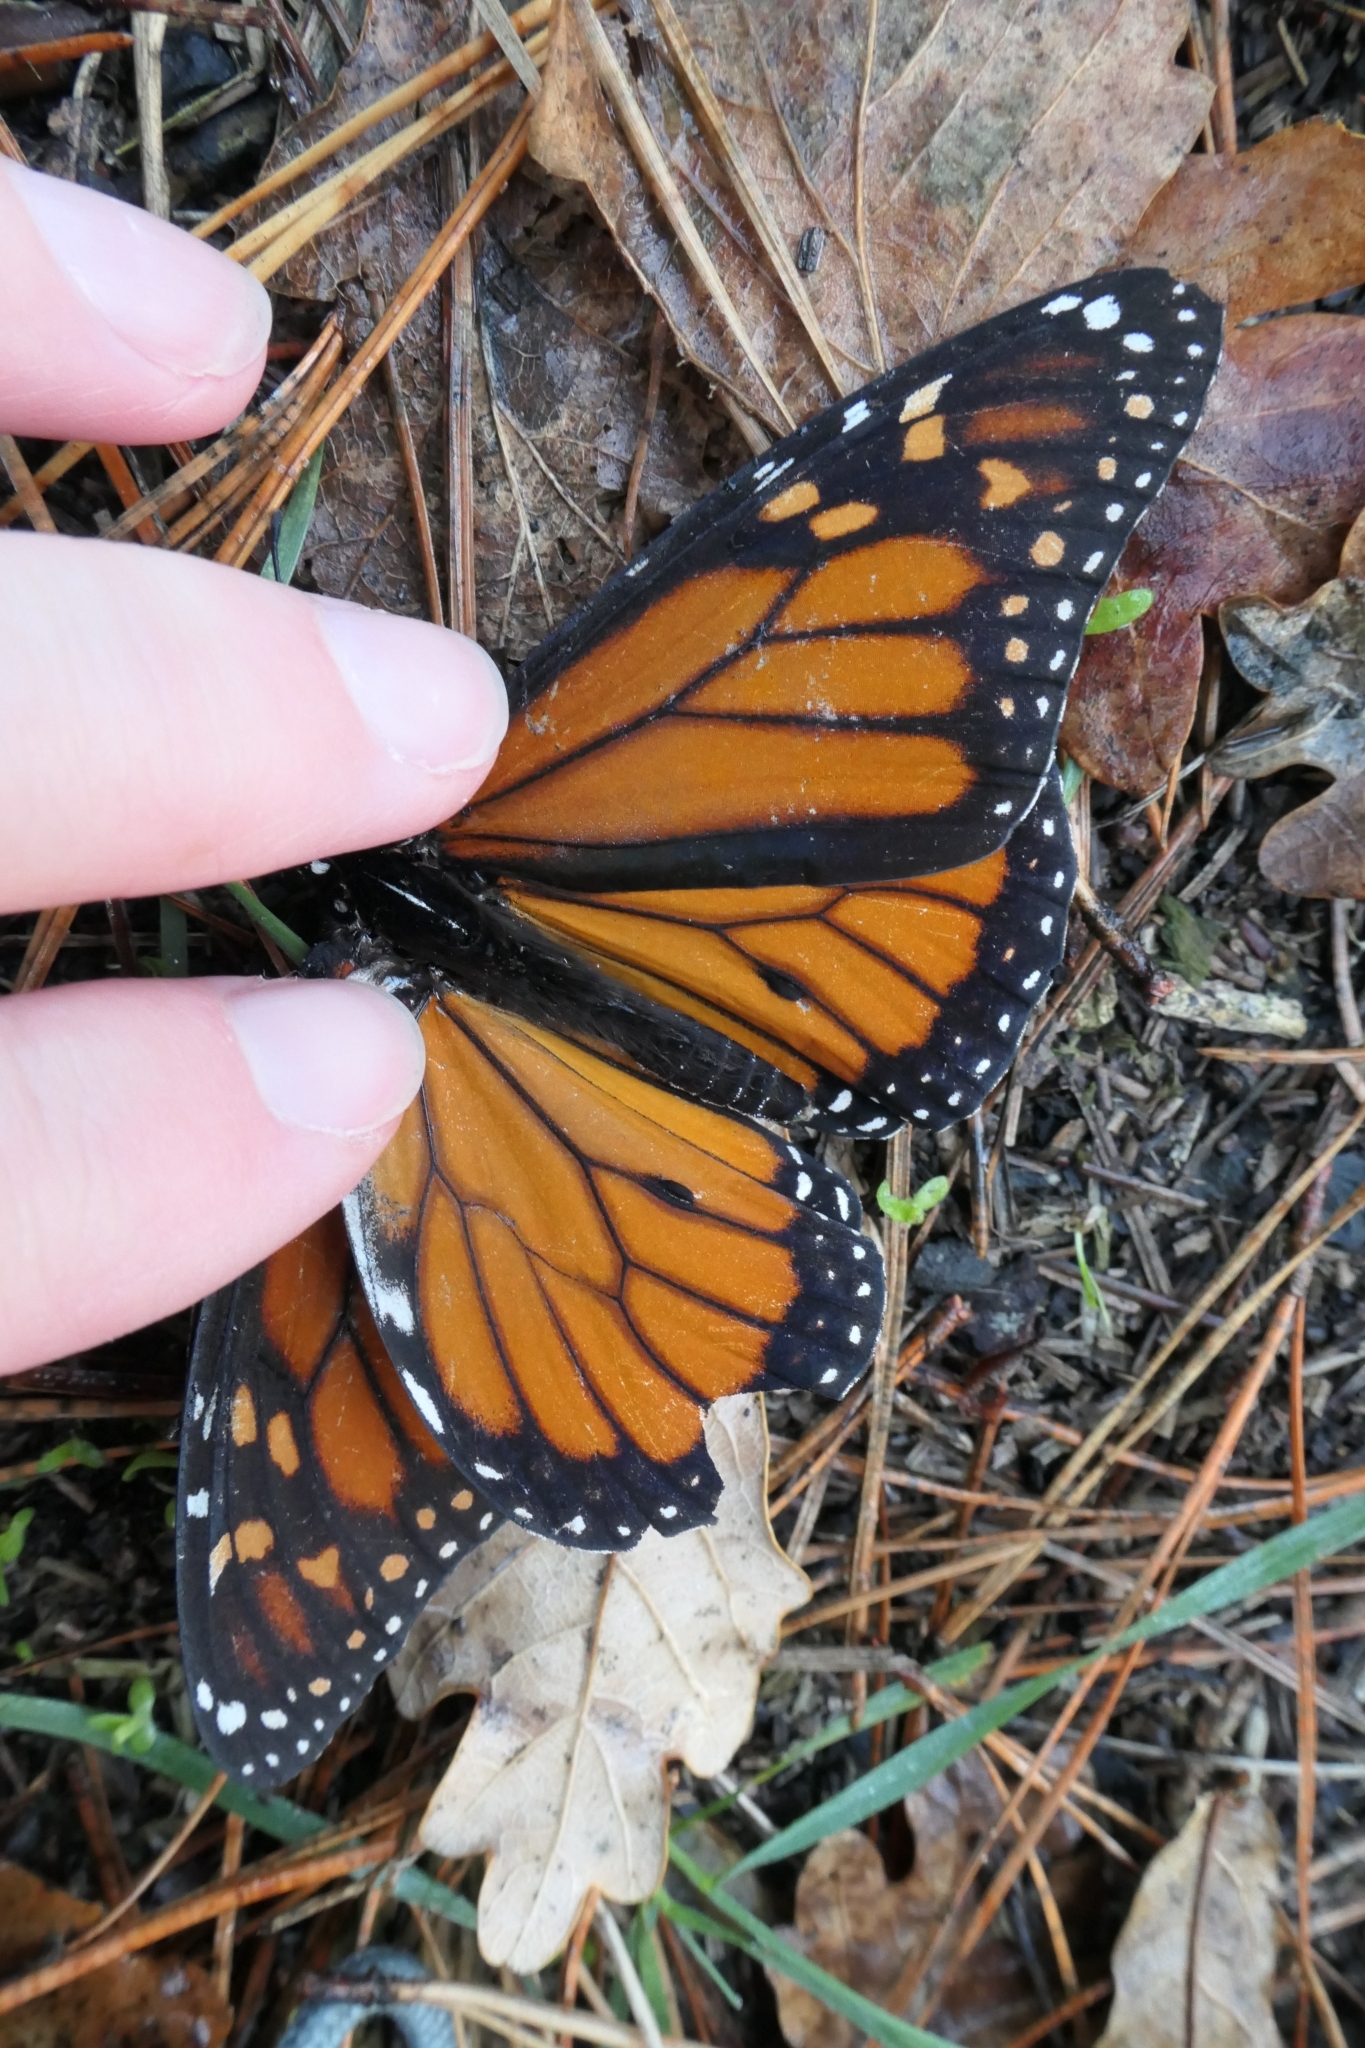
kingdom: Animalia
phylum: Arthropoda
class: Insecta
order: Lepidoptera
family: Nymphalidae
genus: Danaus
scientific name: Danaus plexippus
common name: Monarch
